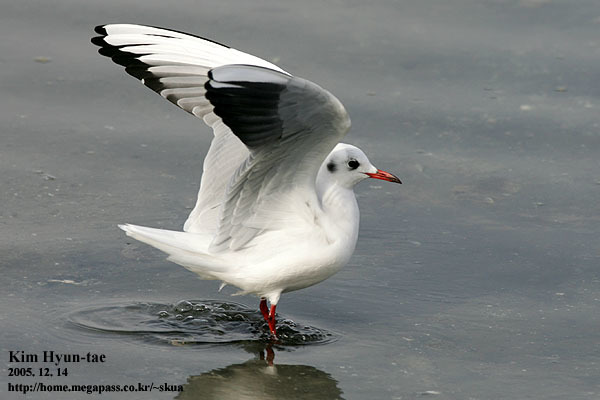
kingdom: Animalia
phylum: Chordata
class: Aves
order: Charadriiformes
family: Laridae
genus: Chroicocephalus
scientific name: Chroicocephalus ridibundus
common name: Black-headed gull
